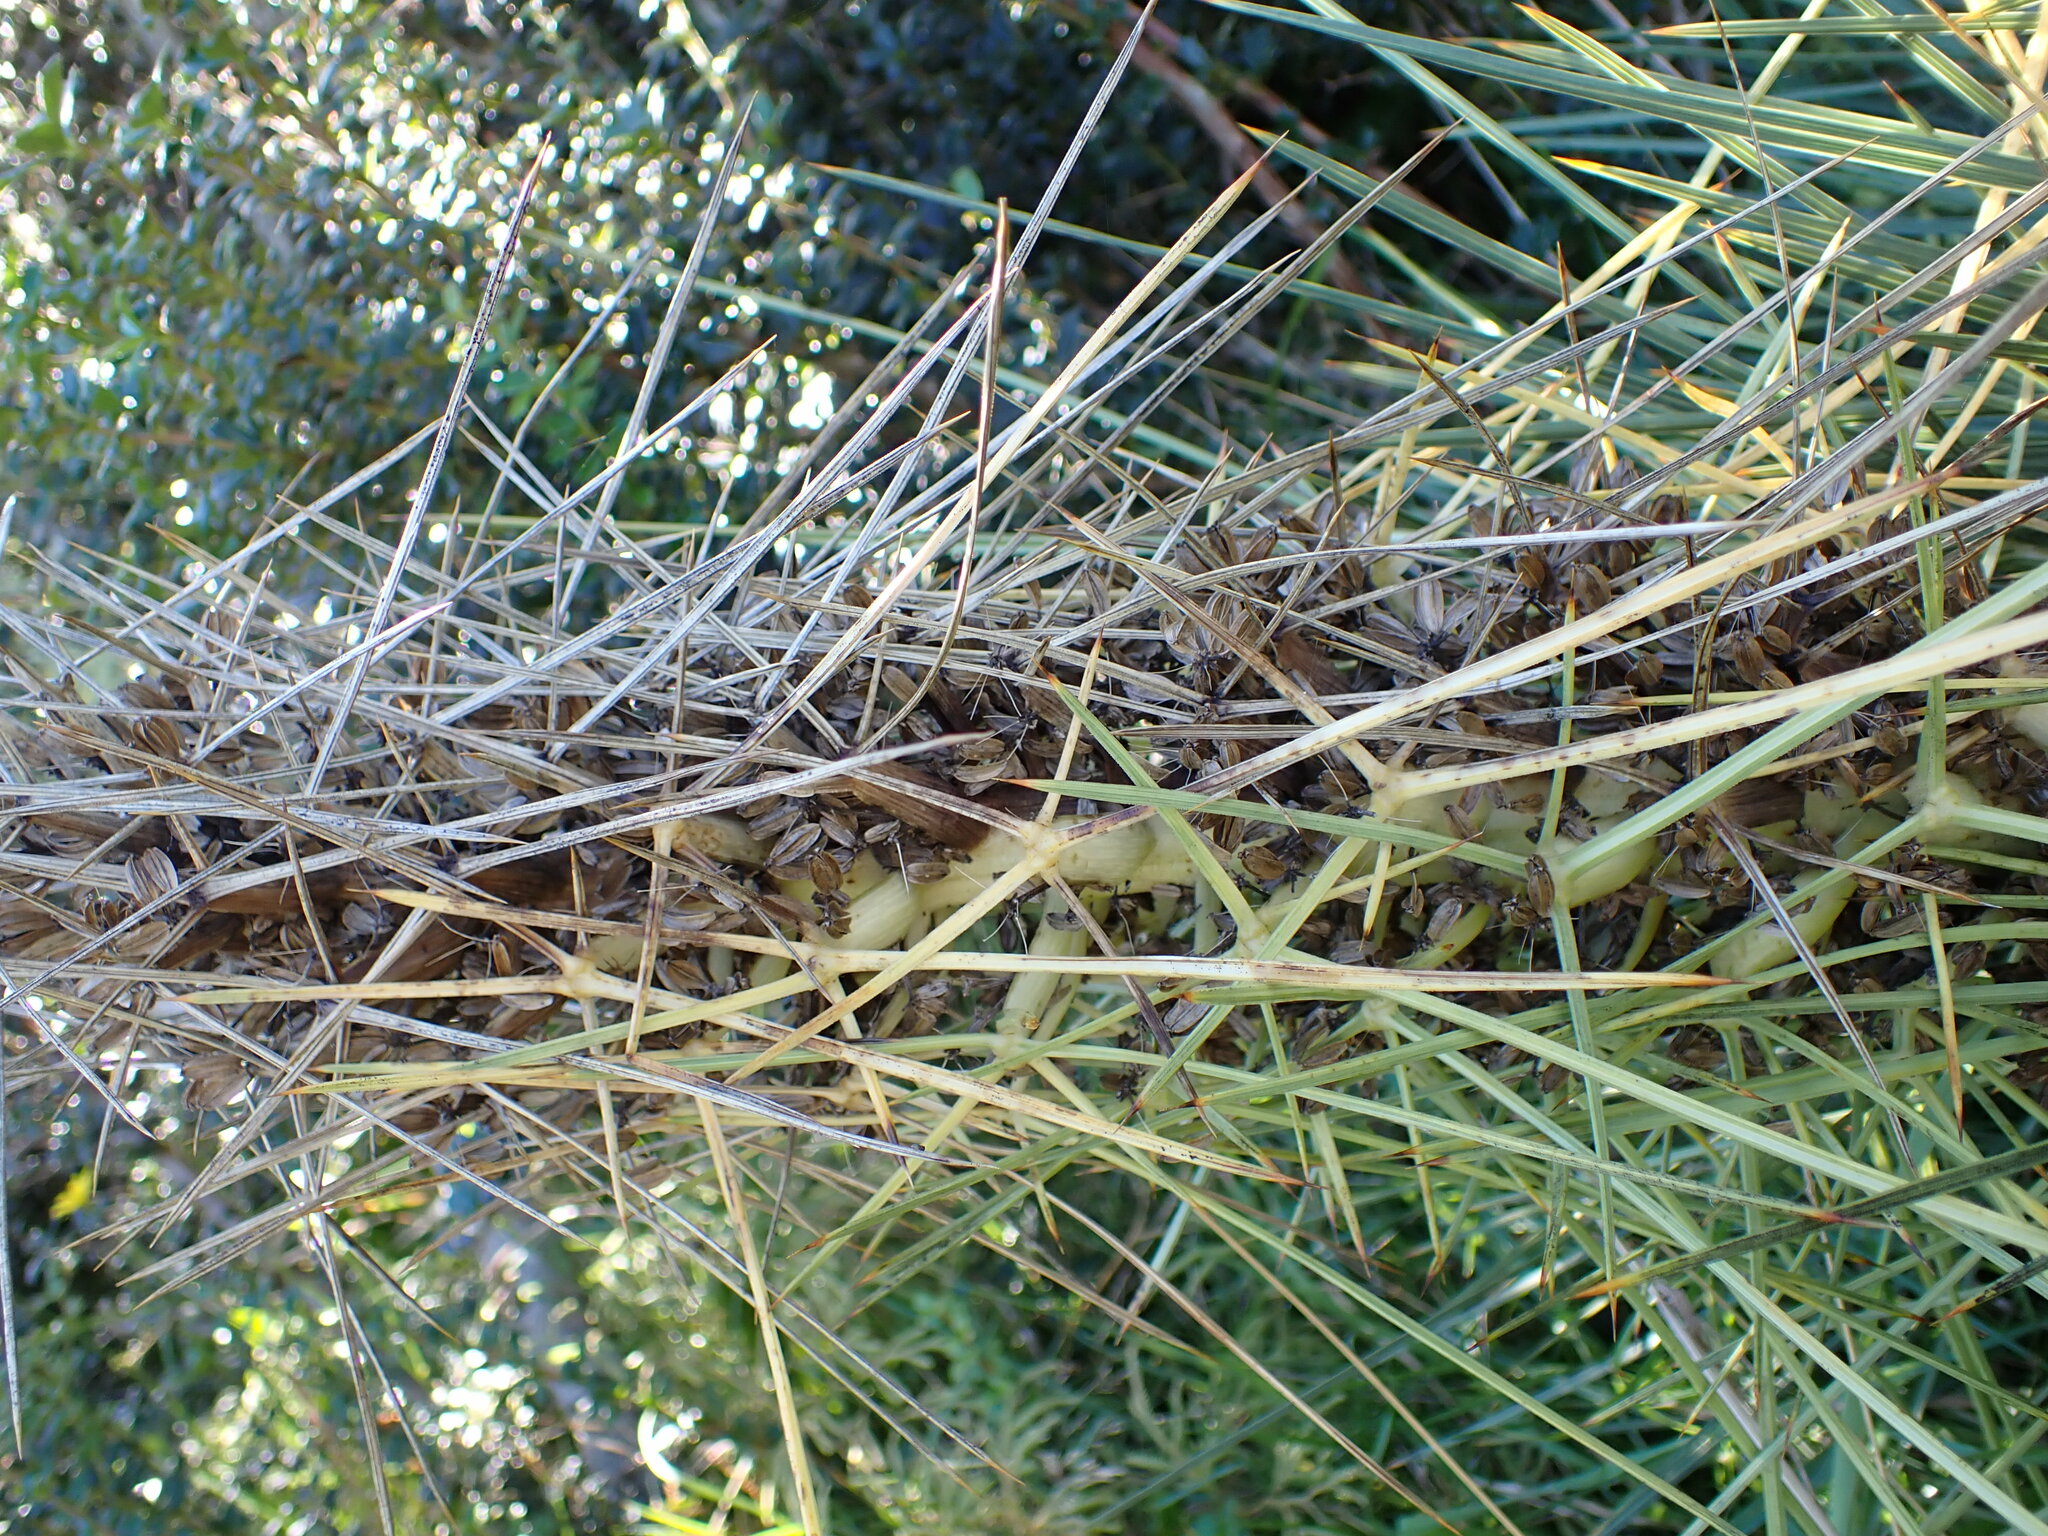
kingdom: Plantae
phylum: Tracheophyta
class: Magnoliopsida
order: Apiales
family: Apiaceae
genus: Aciphylla
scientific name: Aciphylla squarrosa
